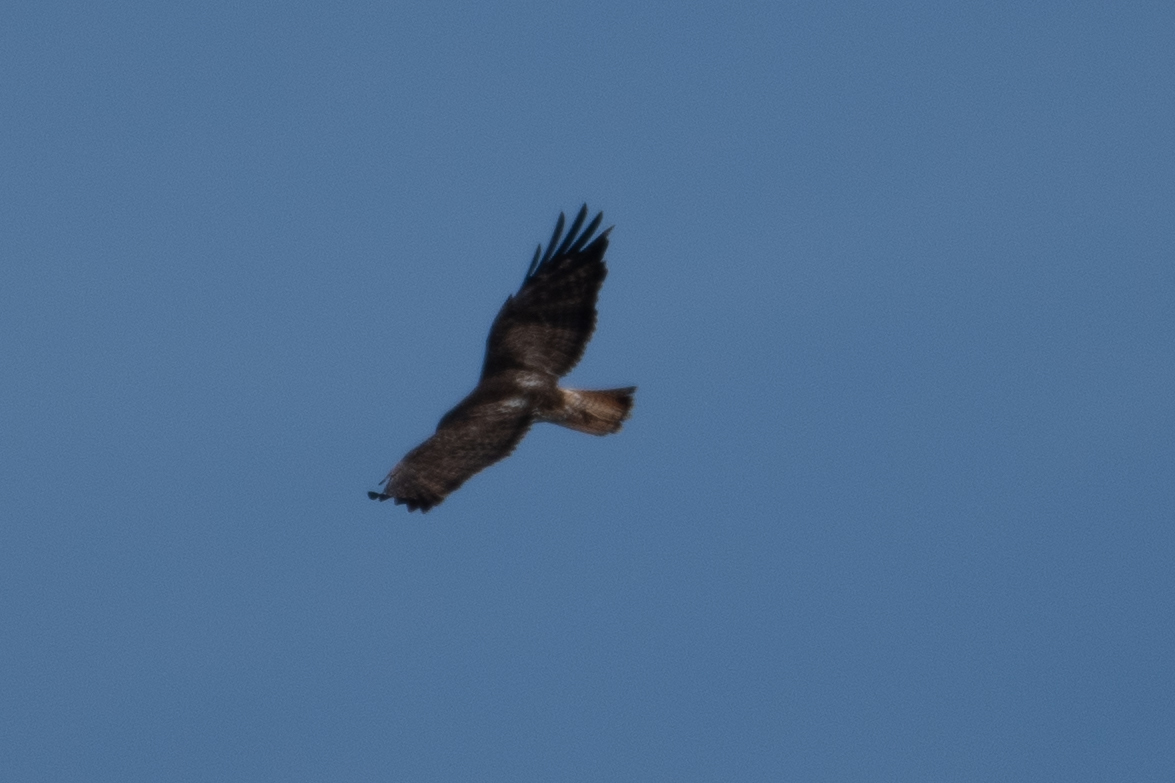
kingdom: Animalia
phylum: Chordata
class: Aves
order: Accipitriformes
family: Accipitridae
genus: Buteo
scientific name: Buteo jamaicensis
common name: Red-tailed hawk
